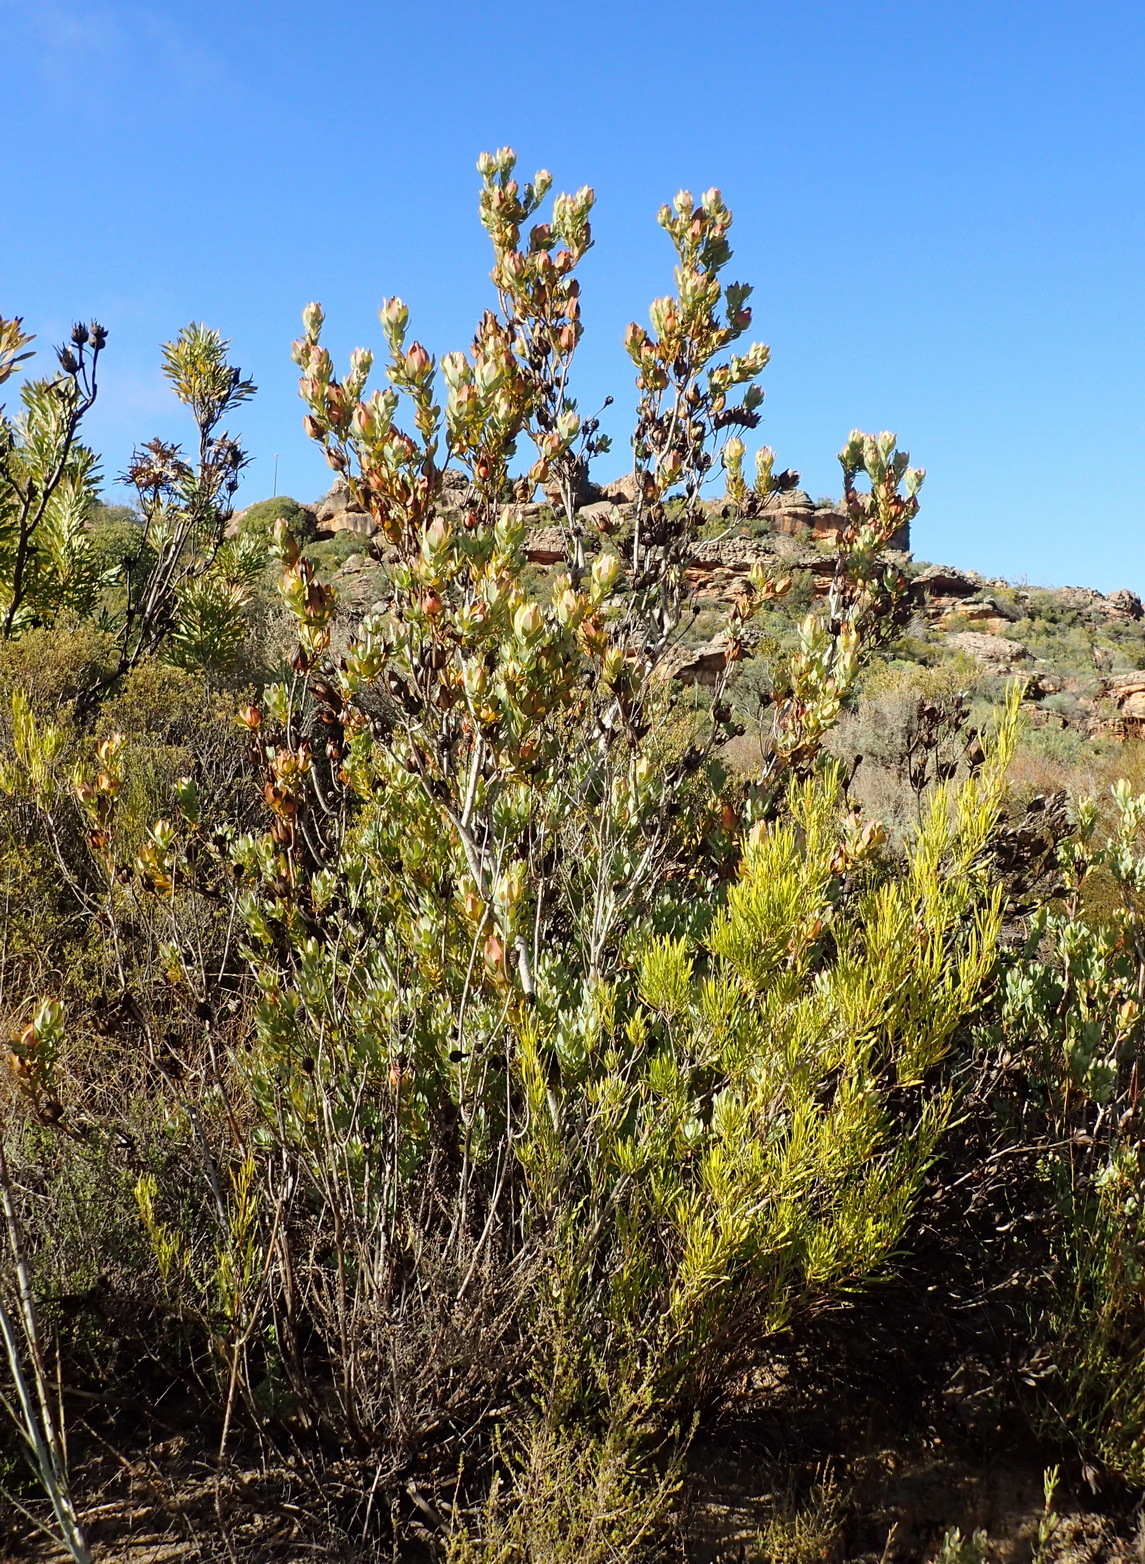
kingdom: Plantae
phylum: Tracheophyta
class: Magnoliopsida
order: Proteales
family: Proteaceae
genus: Leucadendron
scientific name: Leucadendron procerum
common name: Ivory conebush
